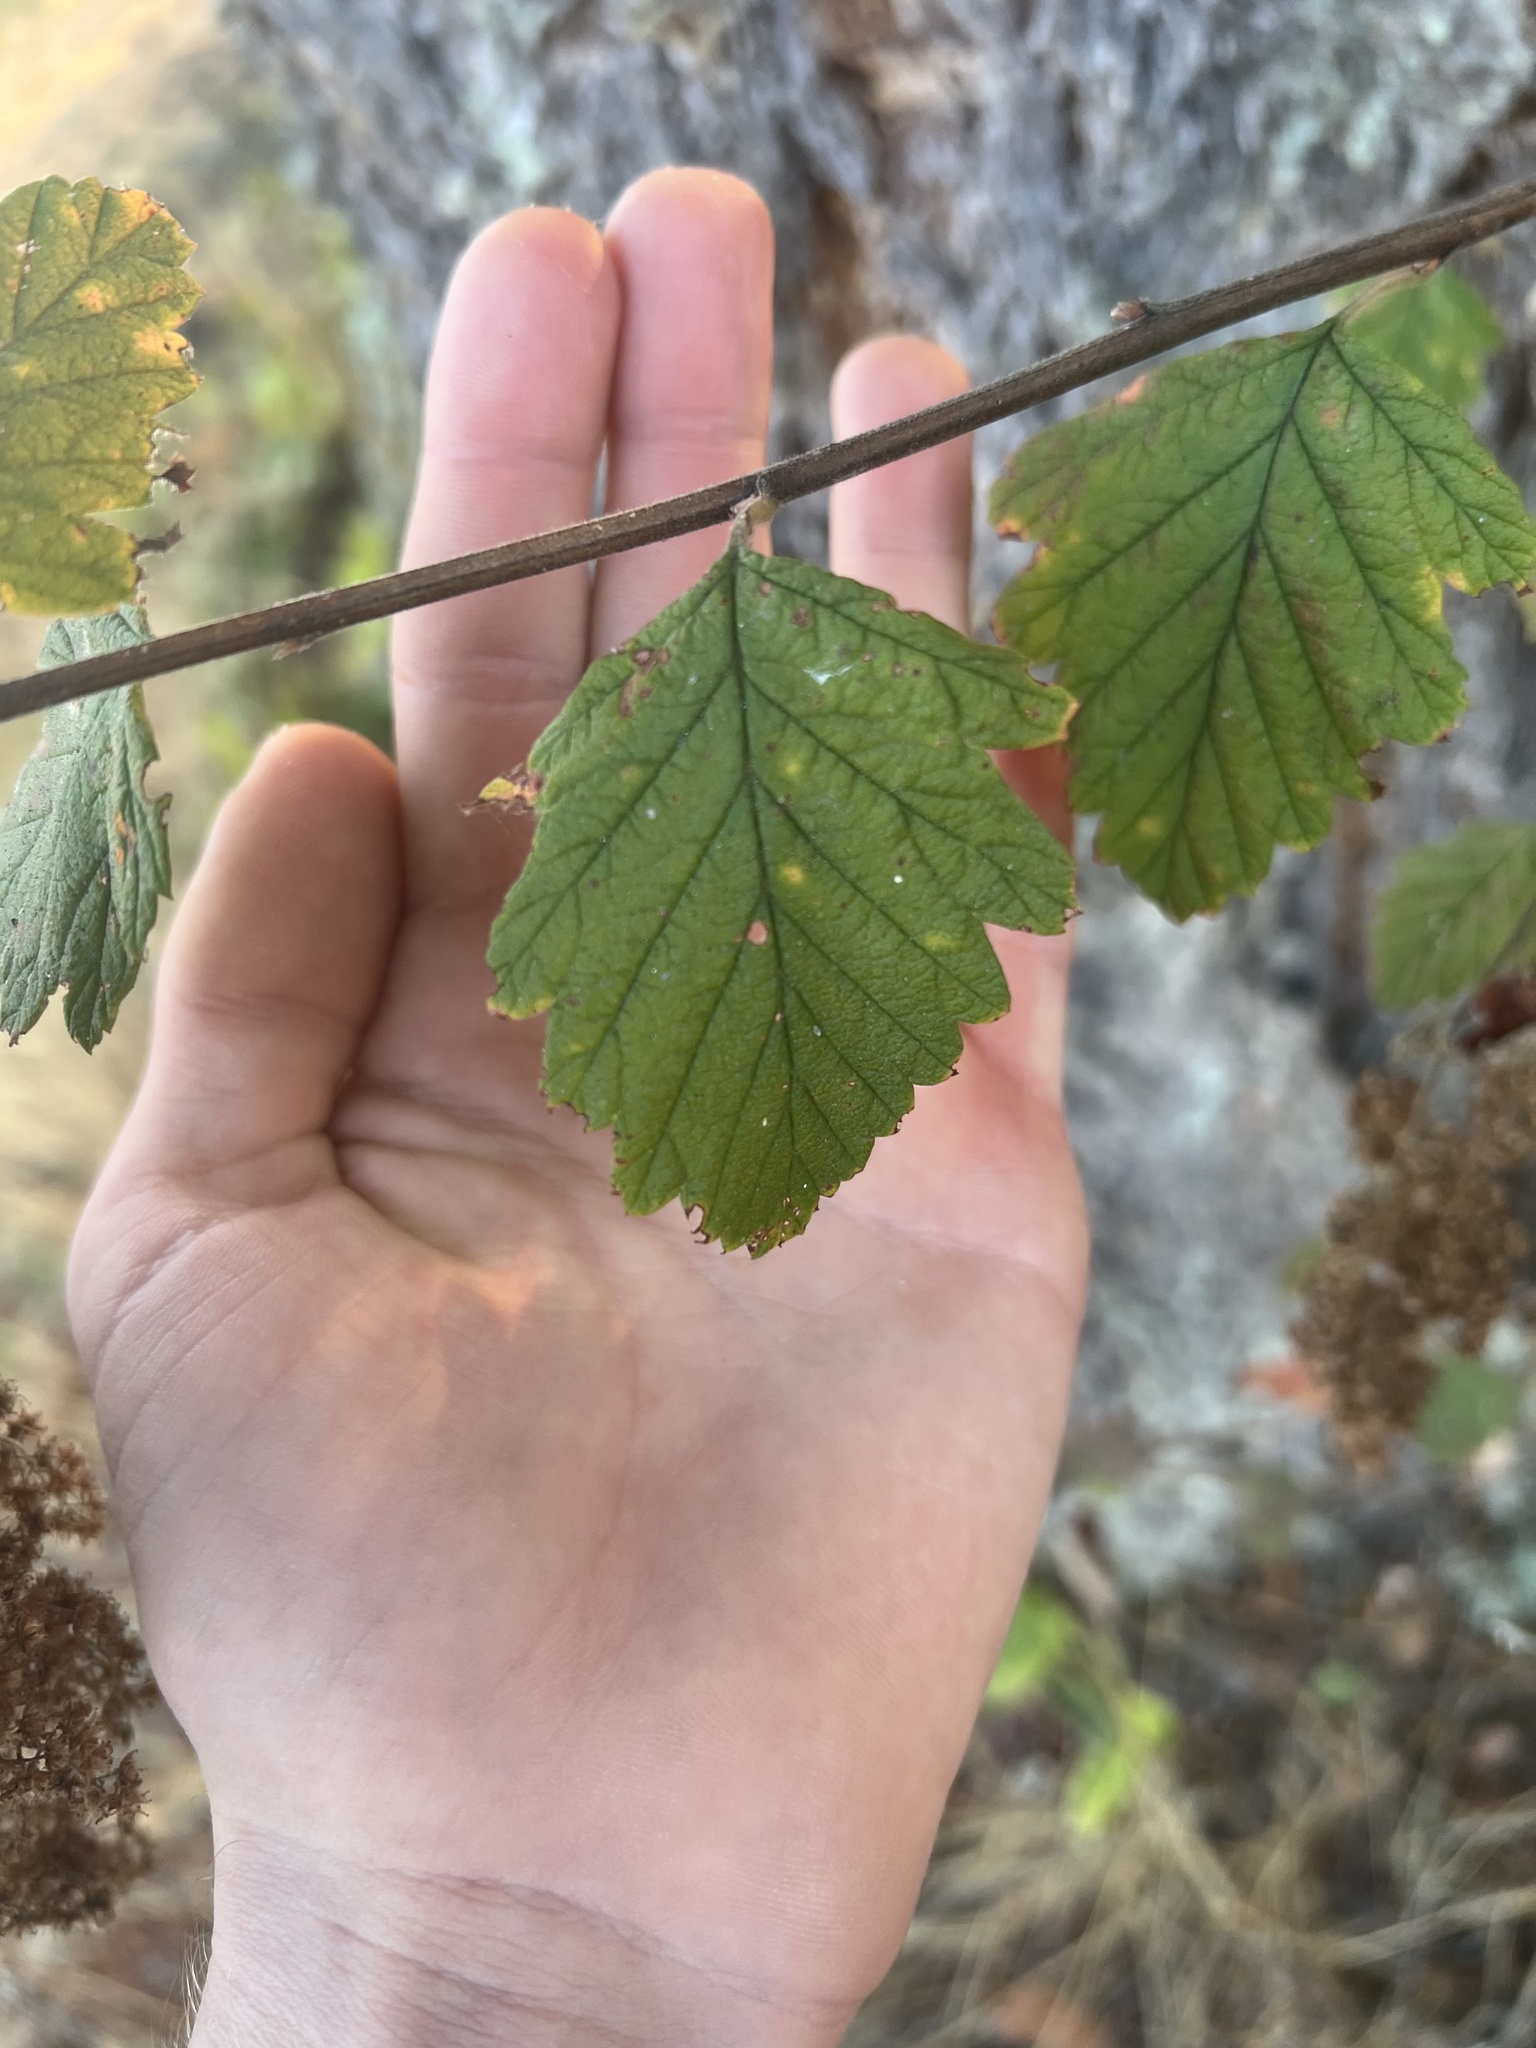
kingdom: Plantae
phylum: Tracheophyta
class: Magnoliopsida
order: Rosales
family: Rosaceae
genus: Holodiscus
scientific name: Holodiscus discolor
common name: Oceanspray
